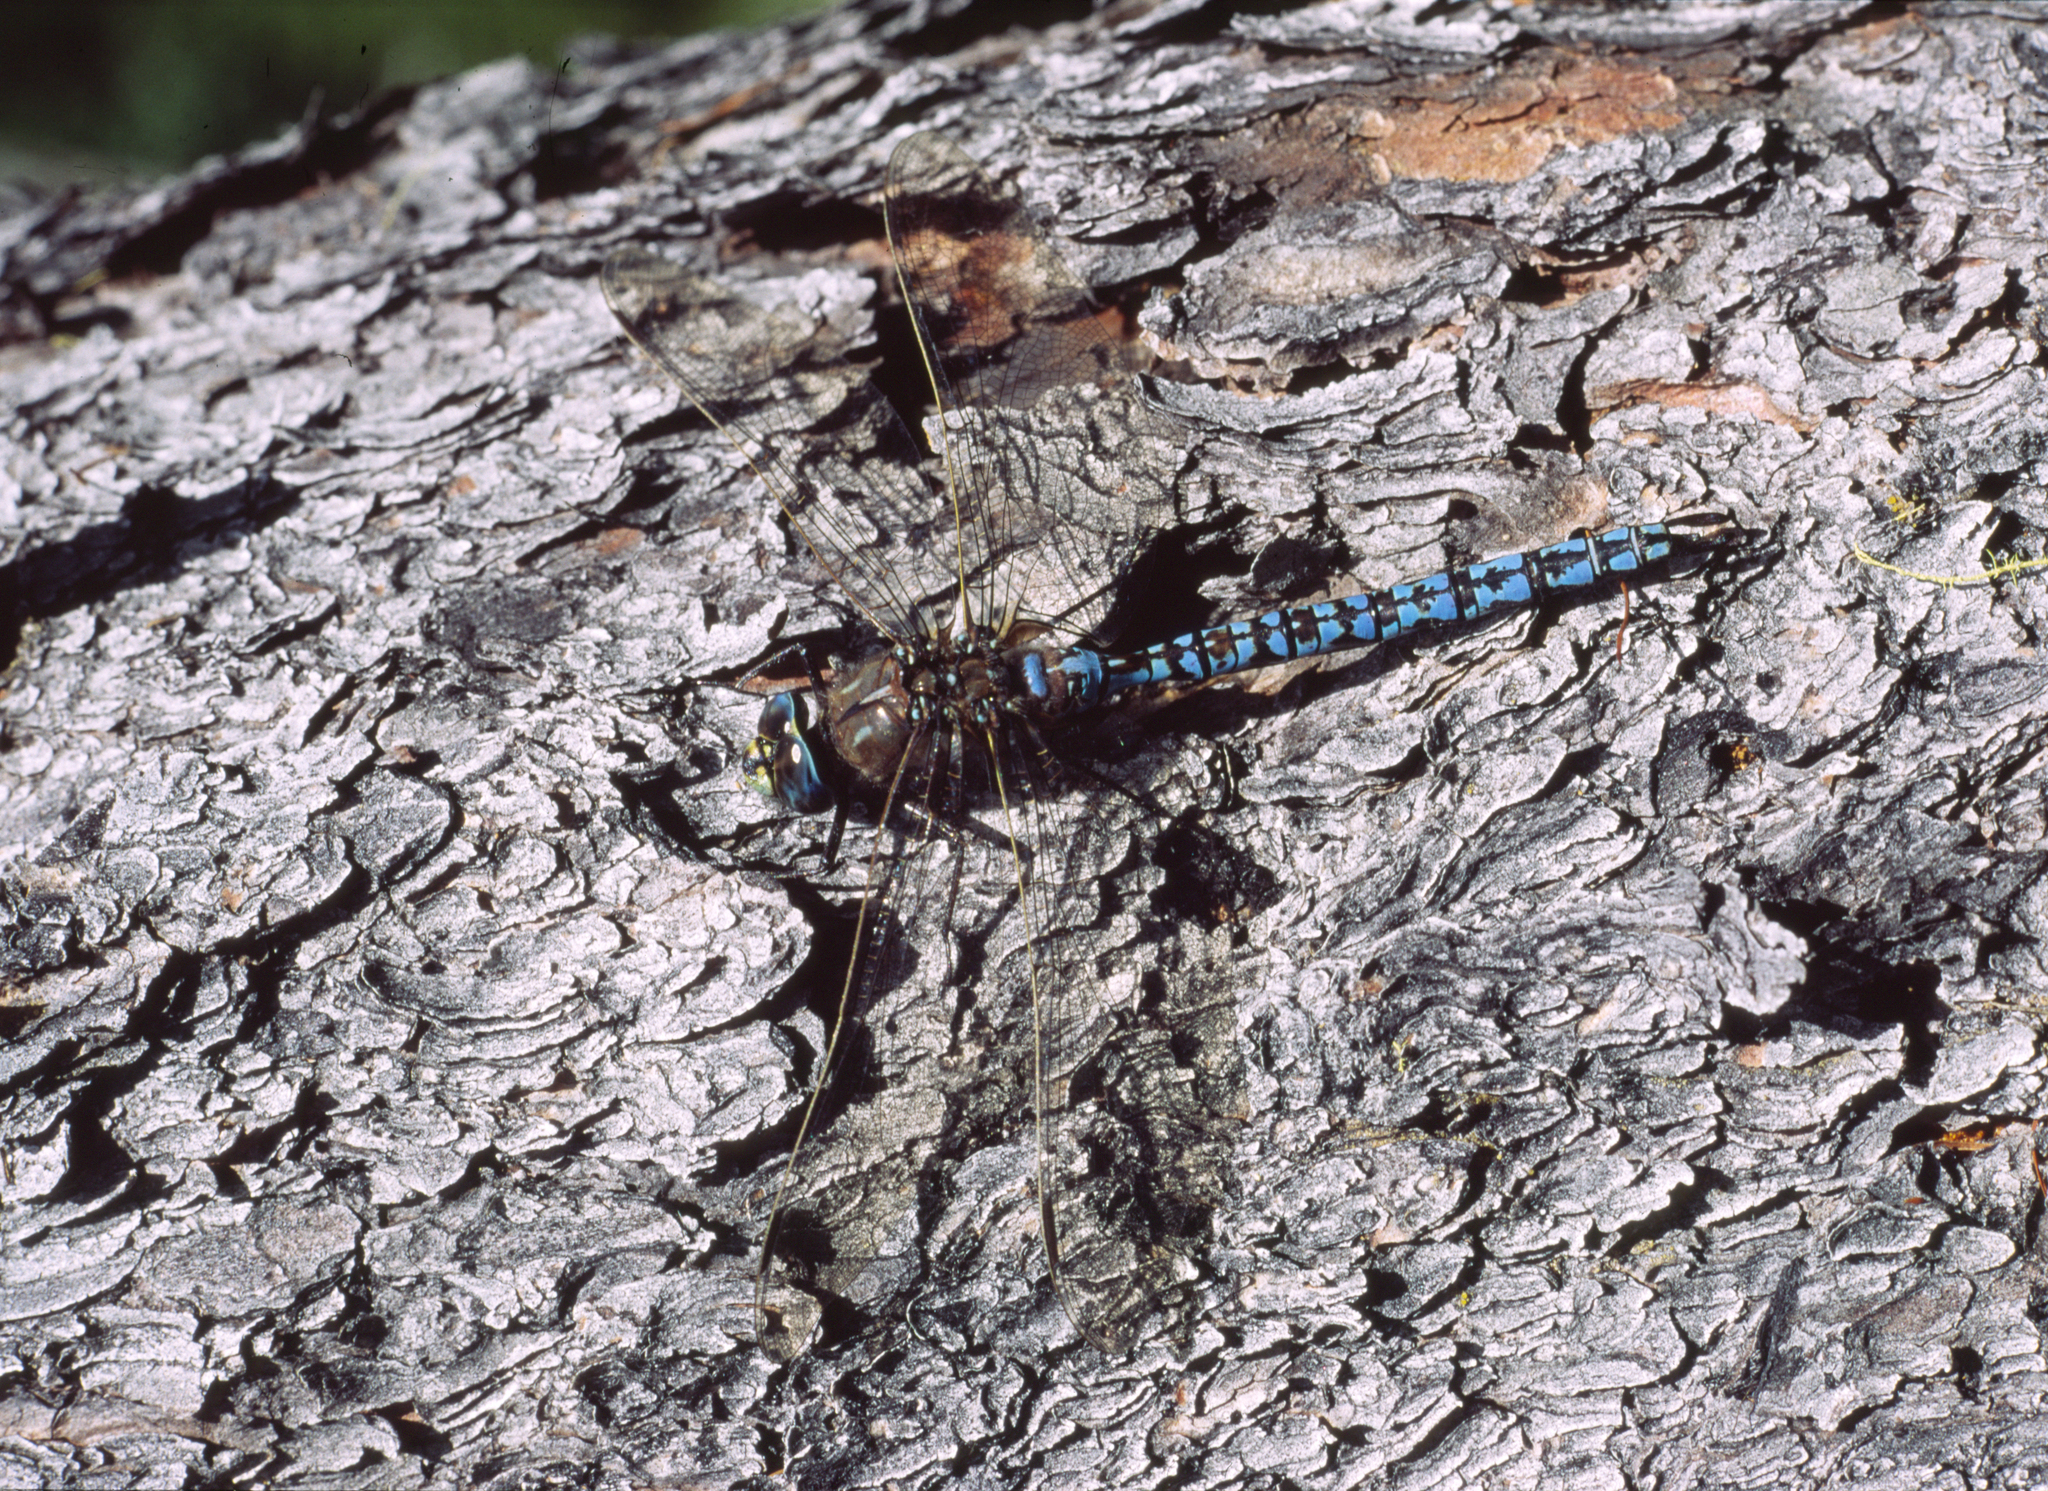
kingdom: Animalia
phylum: Arthropoda
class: Insecta
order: Odonata
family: Aeshnidae
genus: Aeshna
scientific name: Aeshna caerulea
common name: Azure hawker
